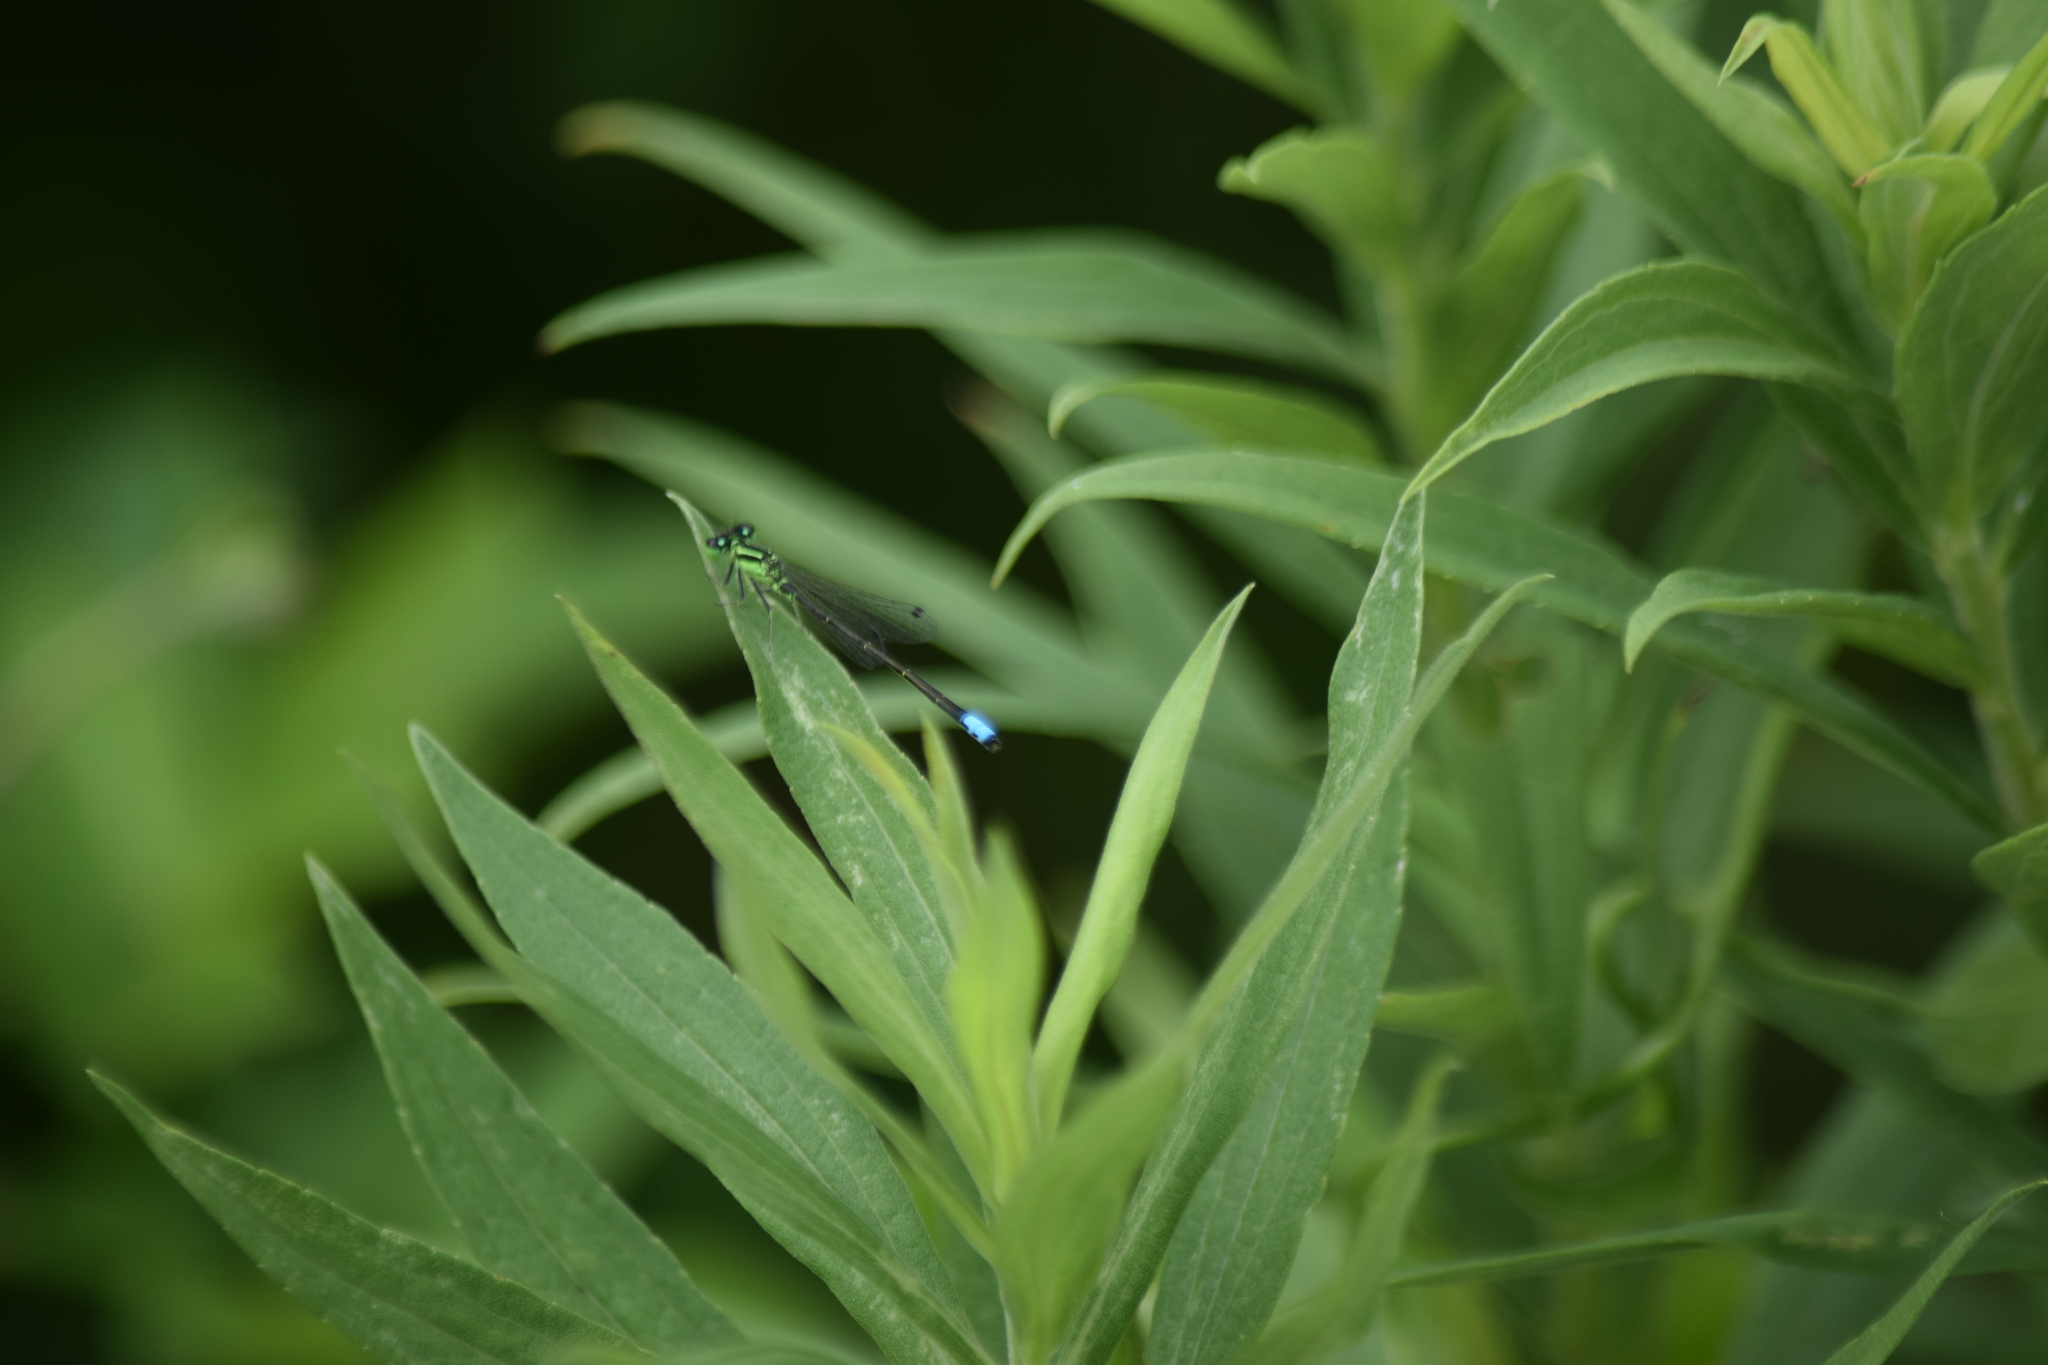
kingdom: Animalia
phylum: Arthropoda
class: Insecta
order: Odonata
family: Coenagrionidae
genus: Ischnura
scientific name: Ischnura verticalis
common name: Eastern forktail
